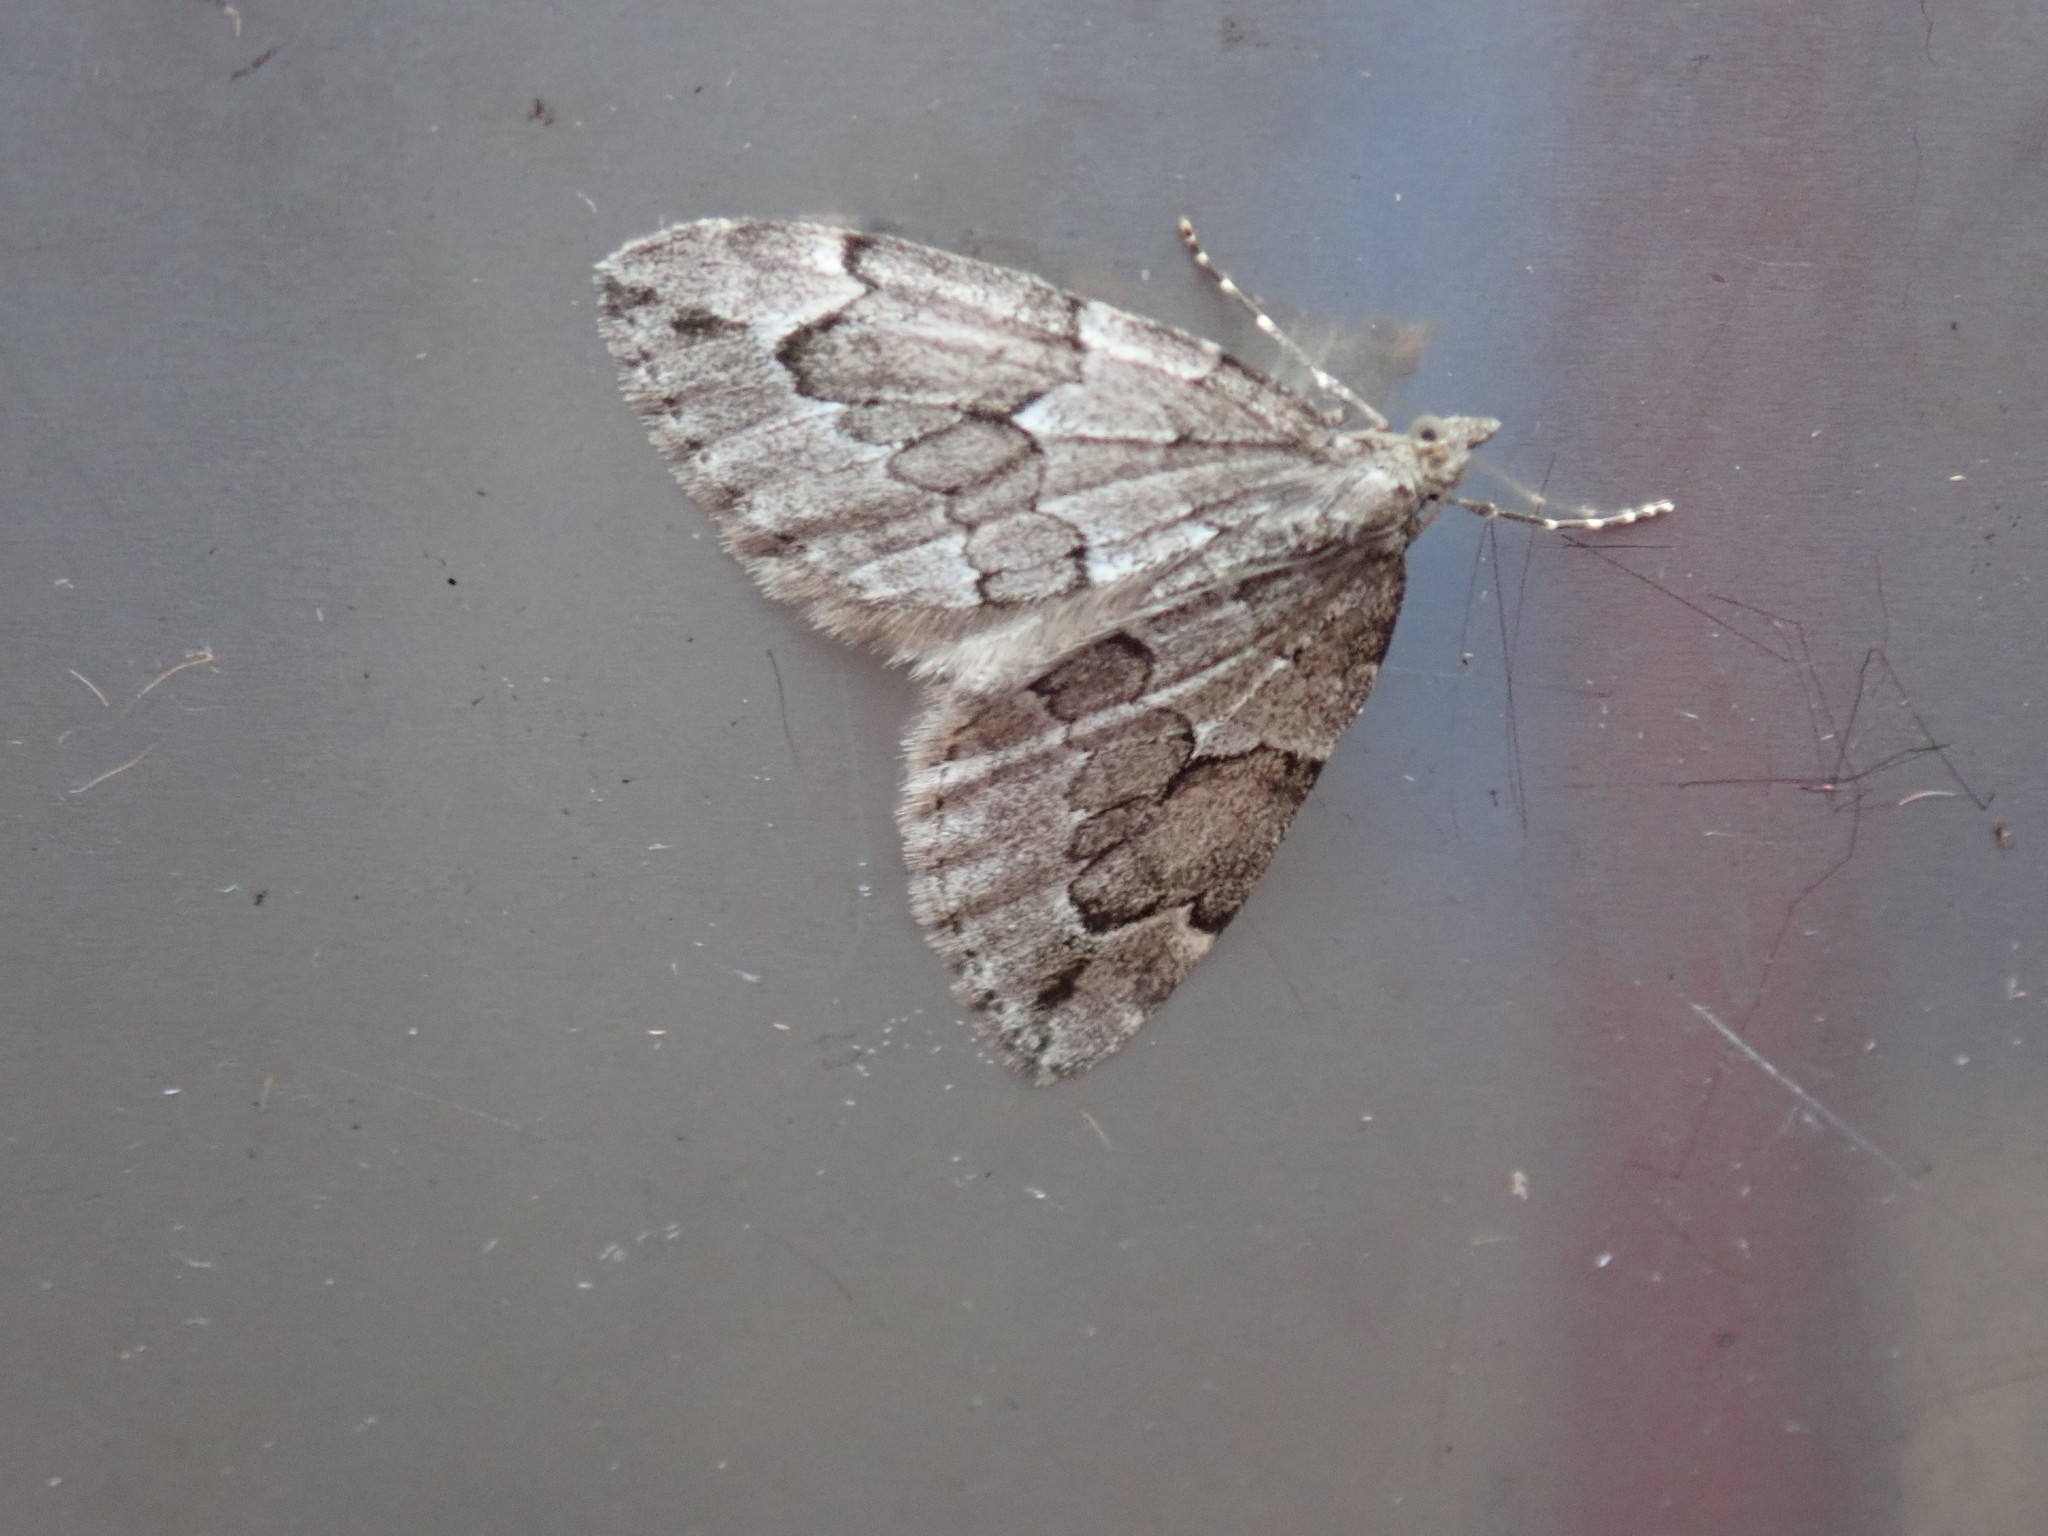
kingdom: Animalia
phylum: Arthropoda
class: Insecta
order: Lepidoptera
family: Geometridae
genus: Thera
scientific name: Thera juniperata
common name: Juniper carpet
